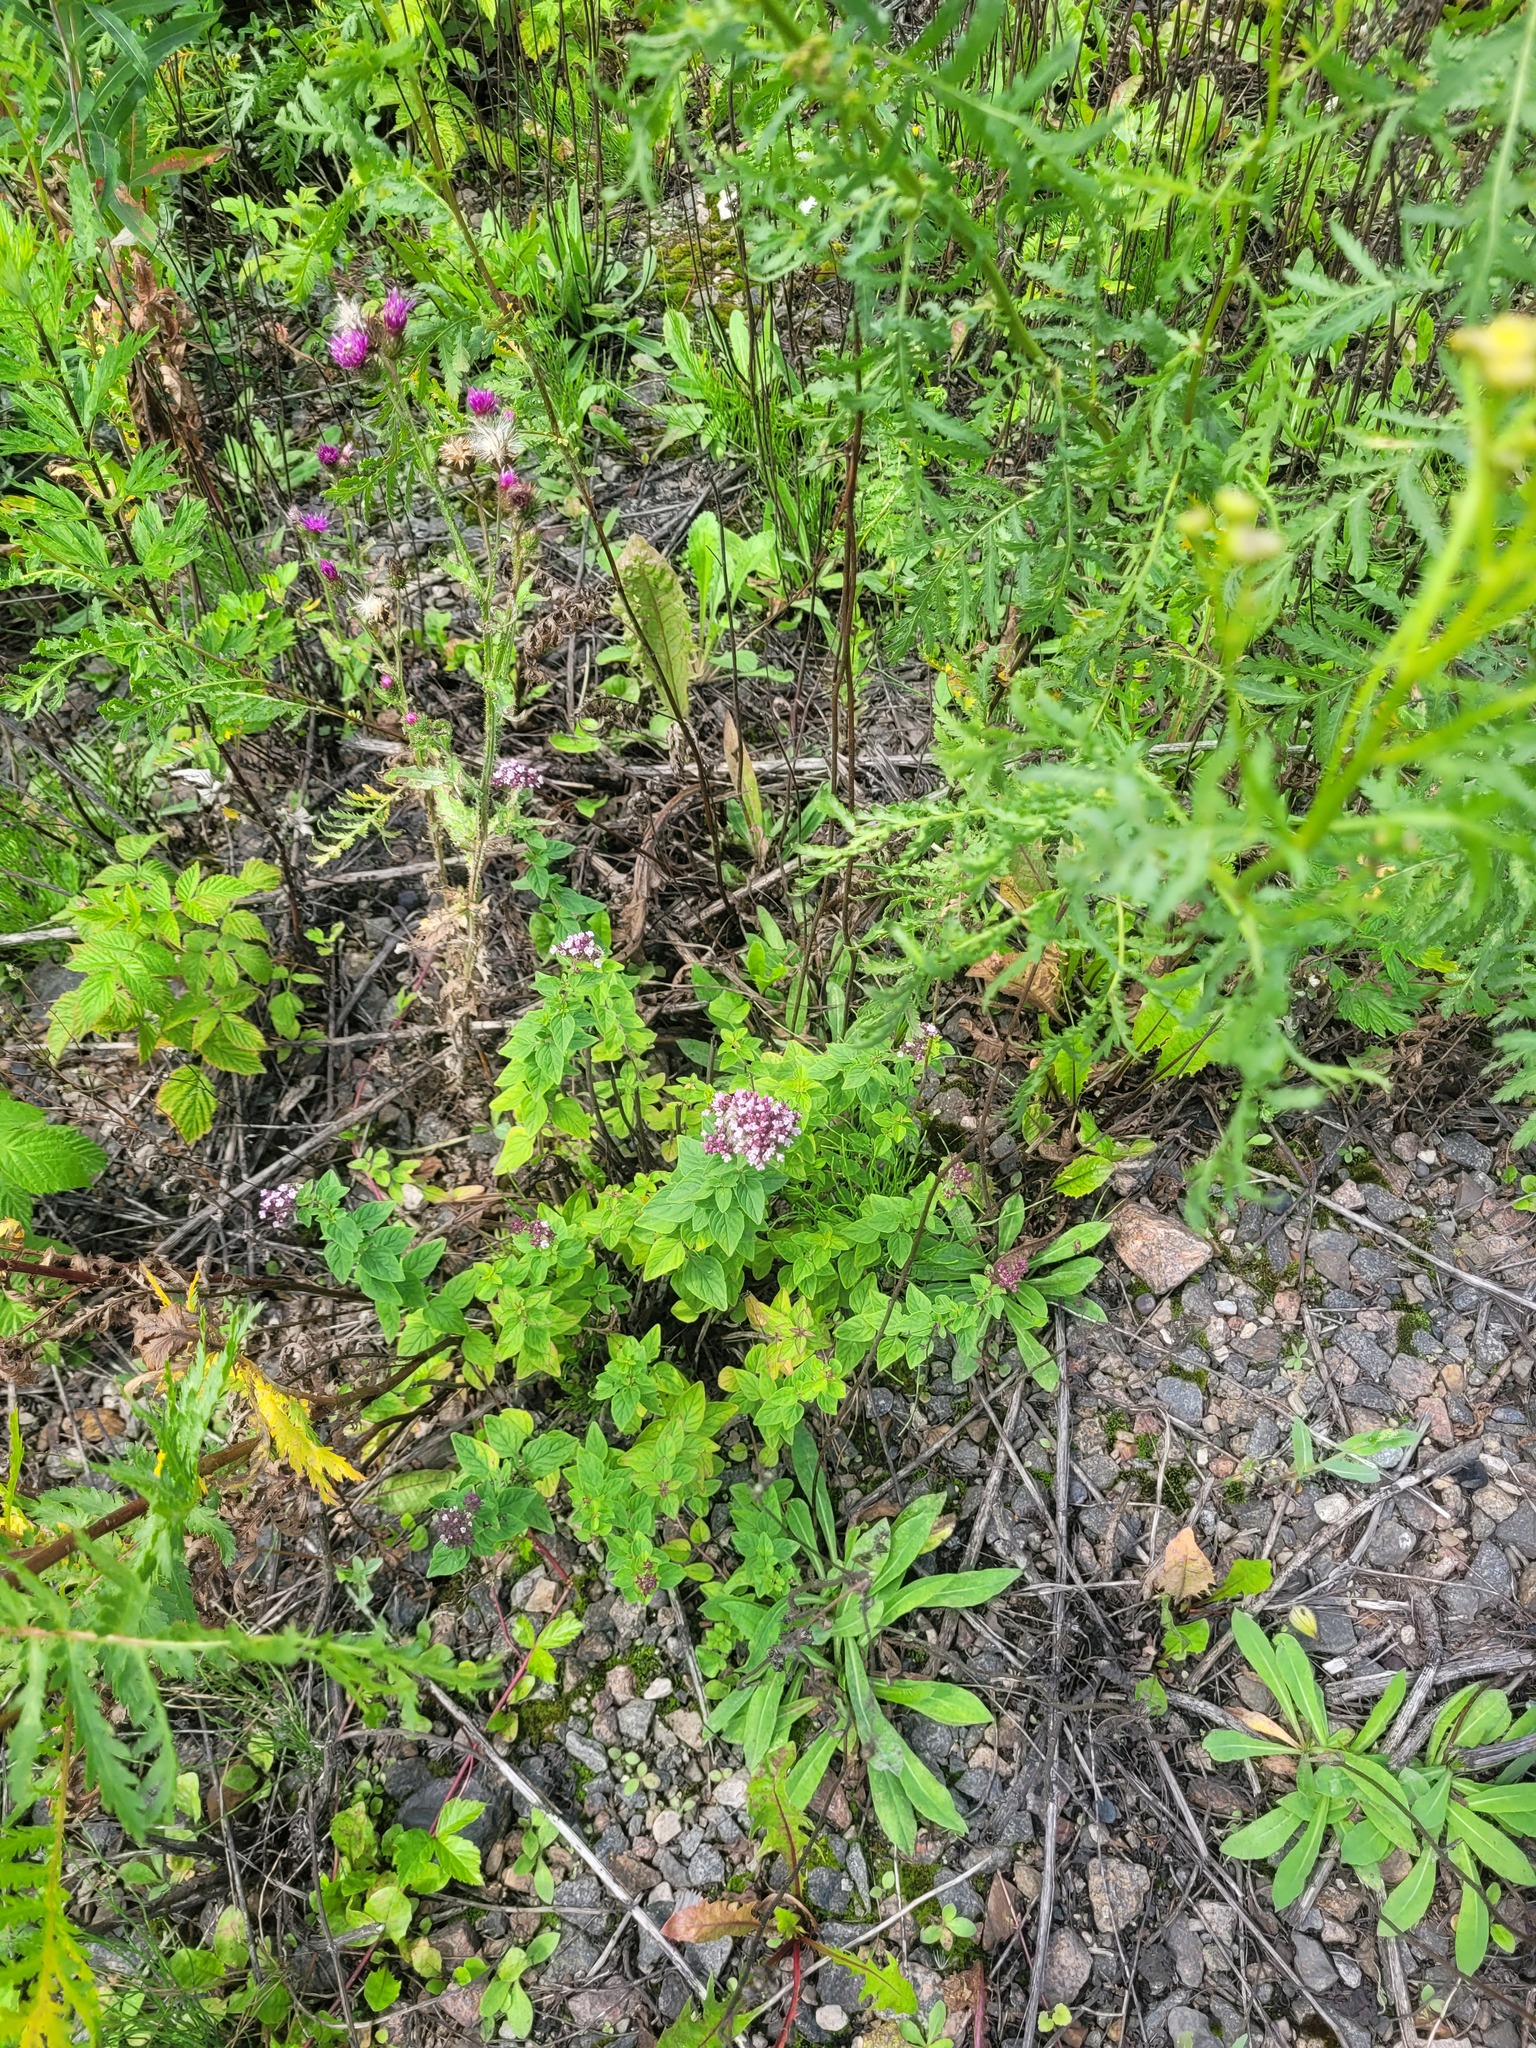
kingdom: Plantae
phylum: Tracheophyta
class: Magnoliopsida
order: Lamiales
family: Lamiaceae
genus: Origanum
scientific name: Origanum vulgare
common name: Wild marjoram
